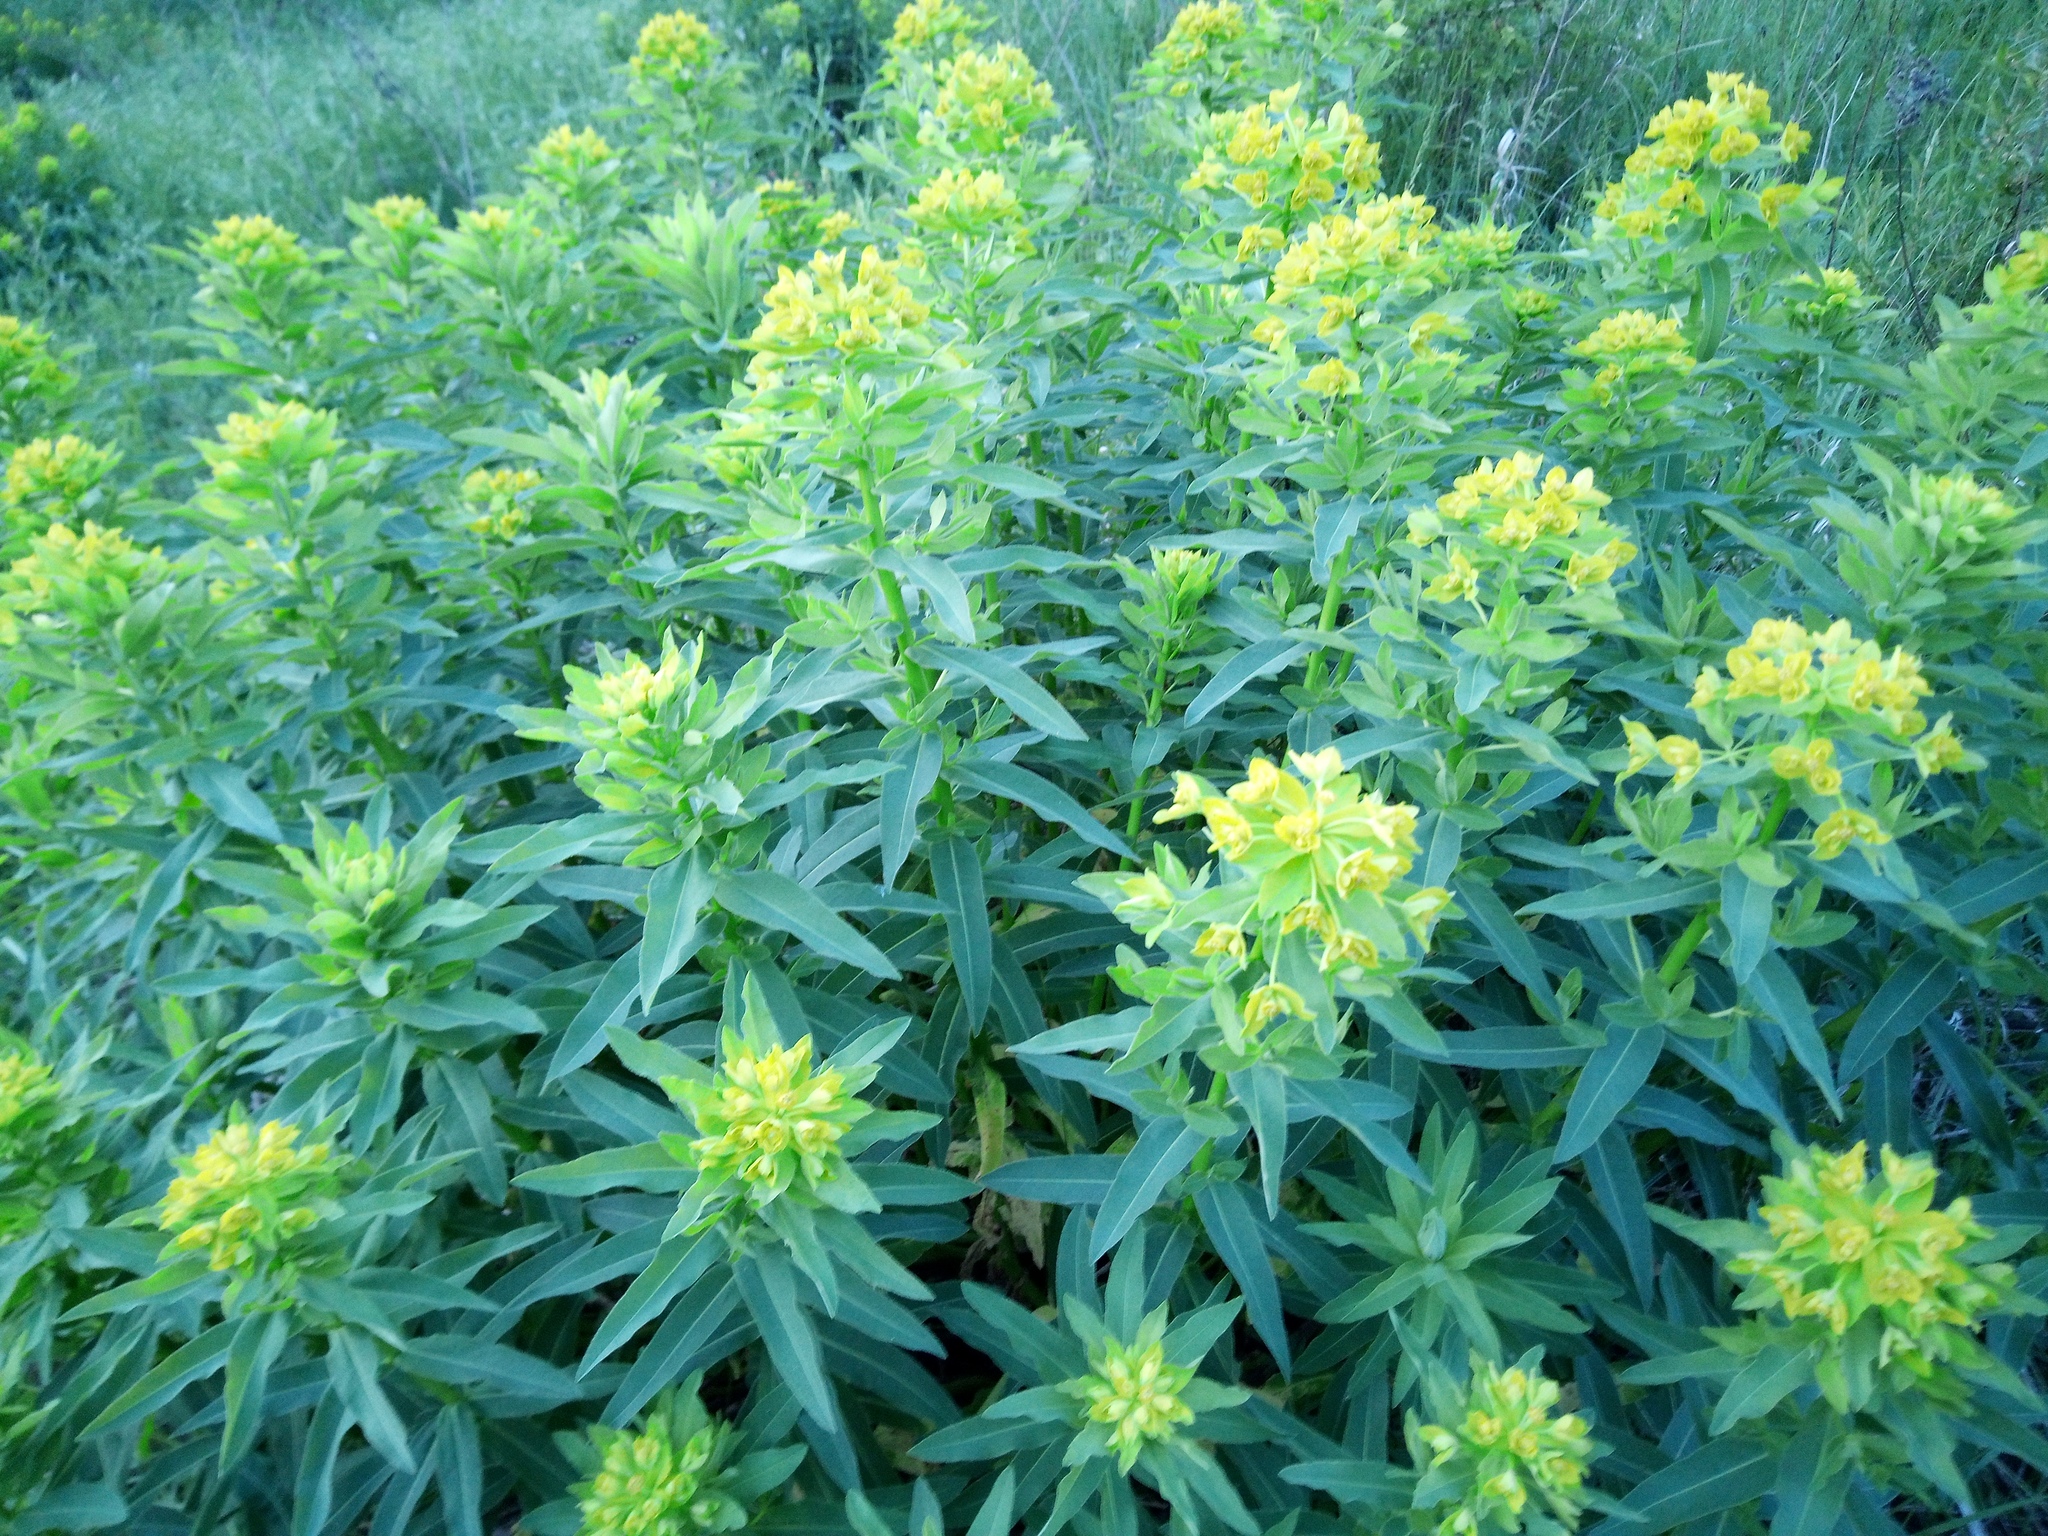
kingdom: Plantae
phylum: Tracheophyta
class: Magnoliopsida
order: Malpighiales
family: Euphorbiaceae
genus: Euphorbia
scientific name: Euphorbia semivillosa
